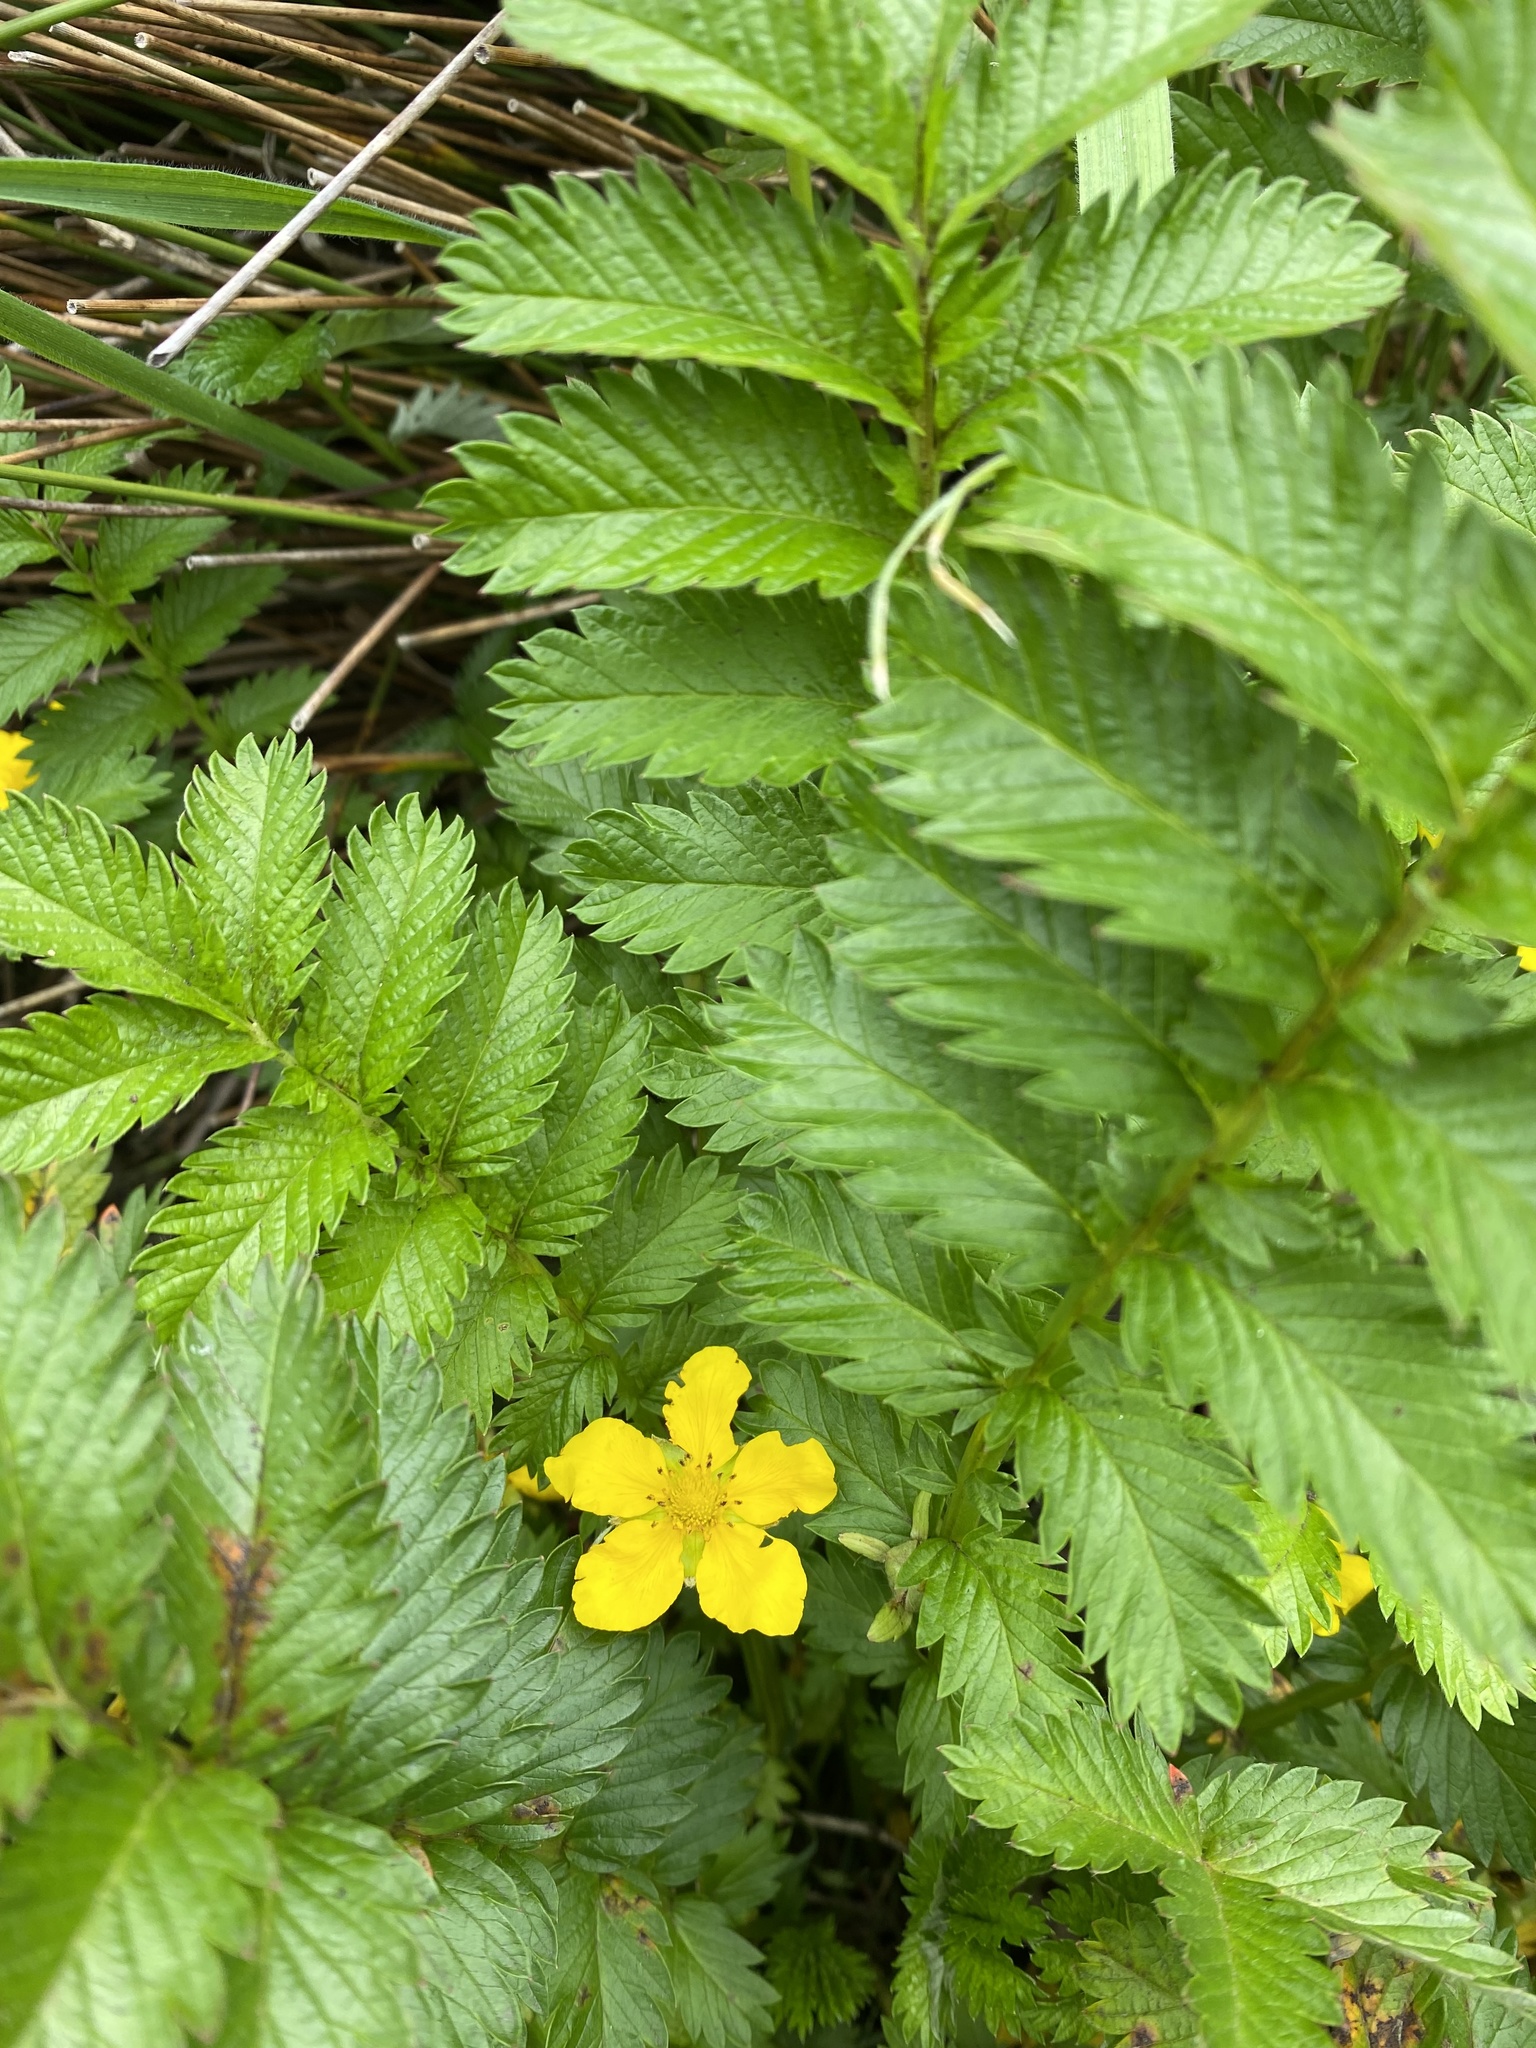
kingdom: Plantae
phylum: Tracheophyta
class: Magnoliopsida
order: Rosales
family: Rosaceae
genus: Argentina
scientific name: Argentina anserina
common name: Common silverweed
